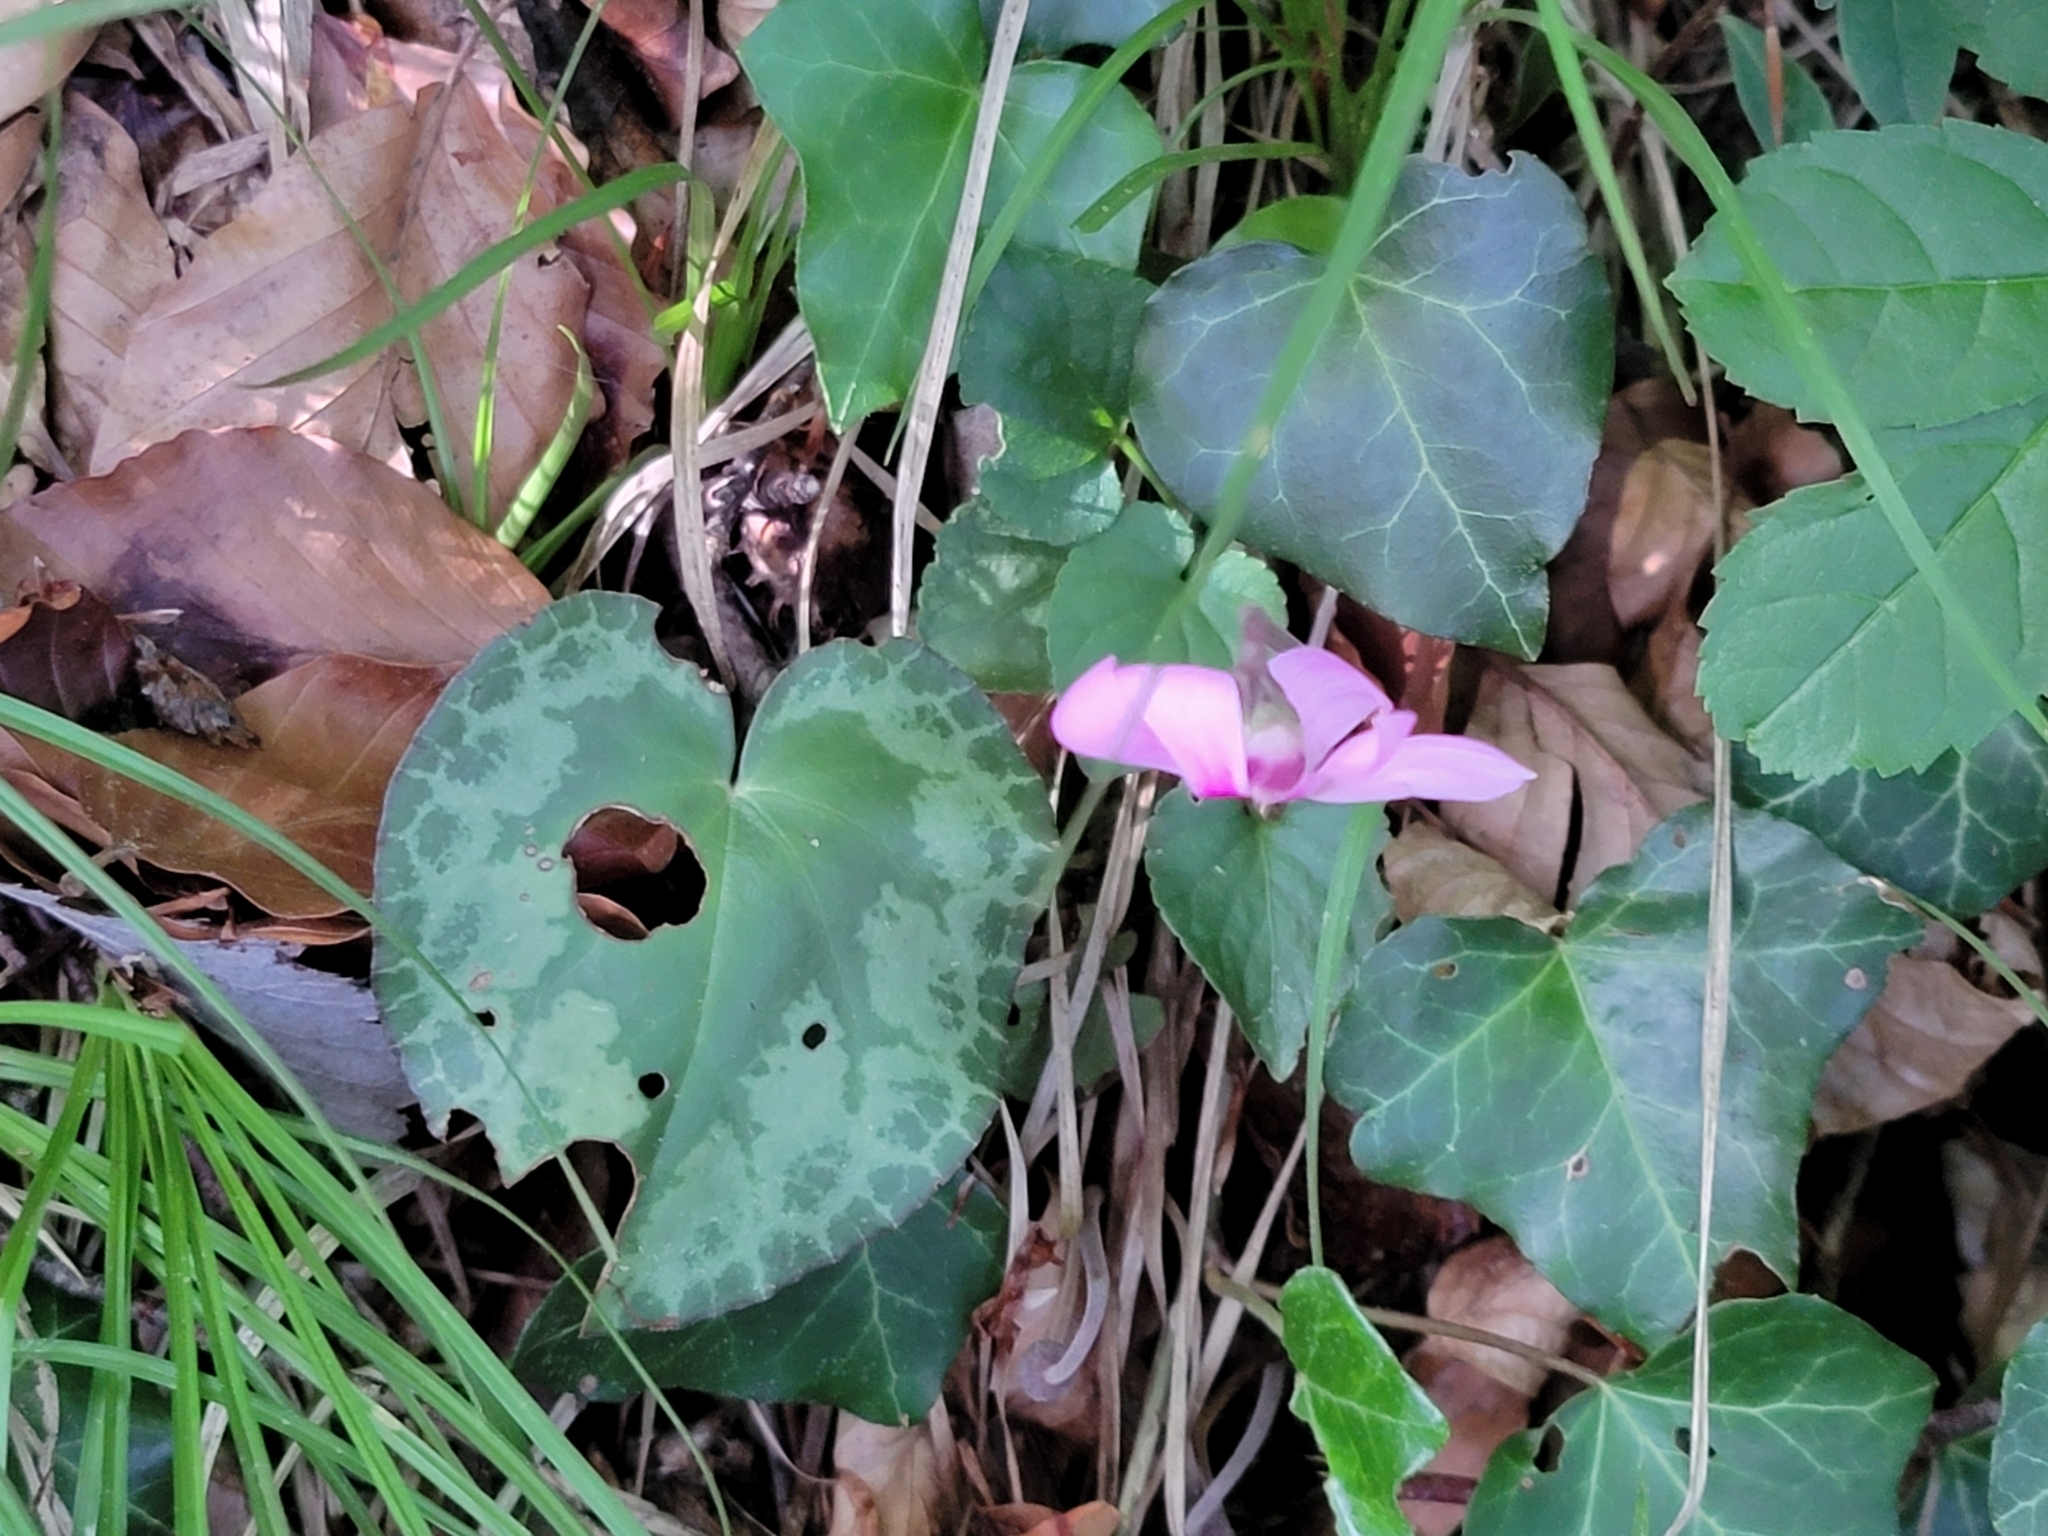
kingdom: Plantae
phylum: Tracheophyta
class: Magnoliopsida
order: Ericales
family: Primulaceae
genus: Cyclamen
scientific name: Cyclamen purpurascens
